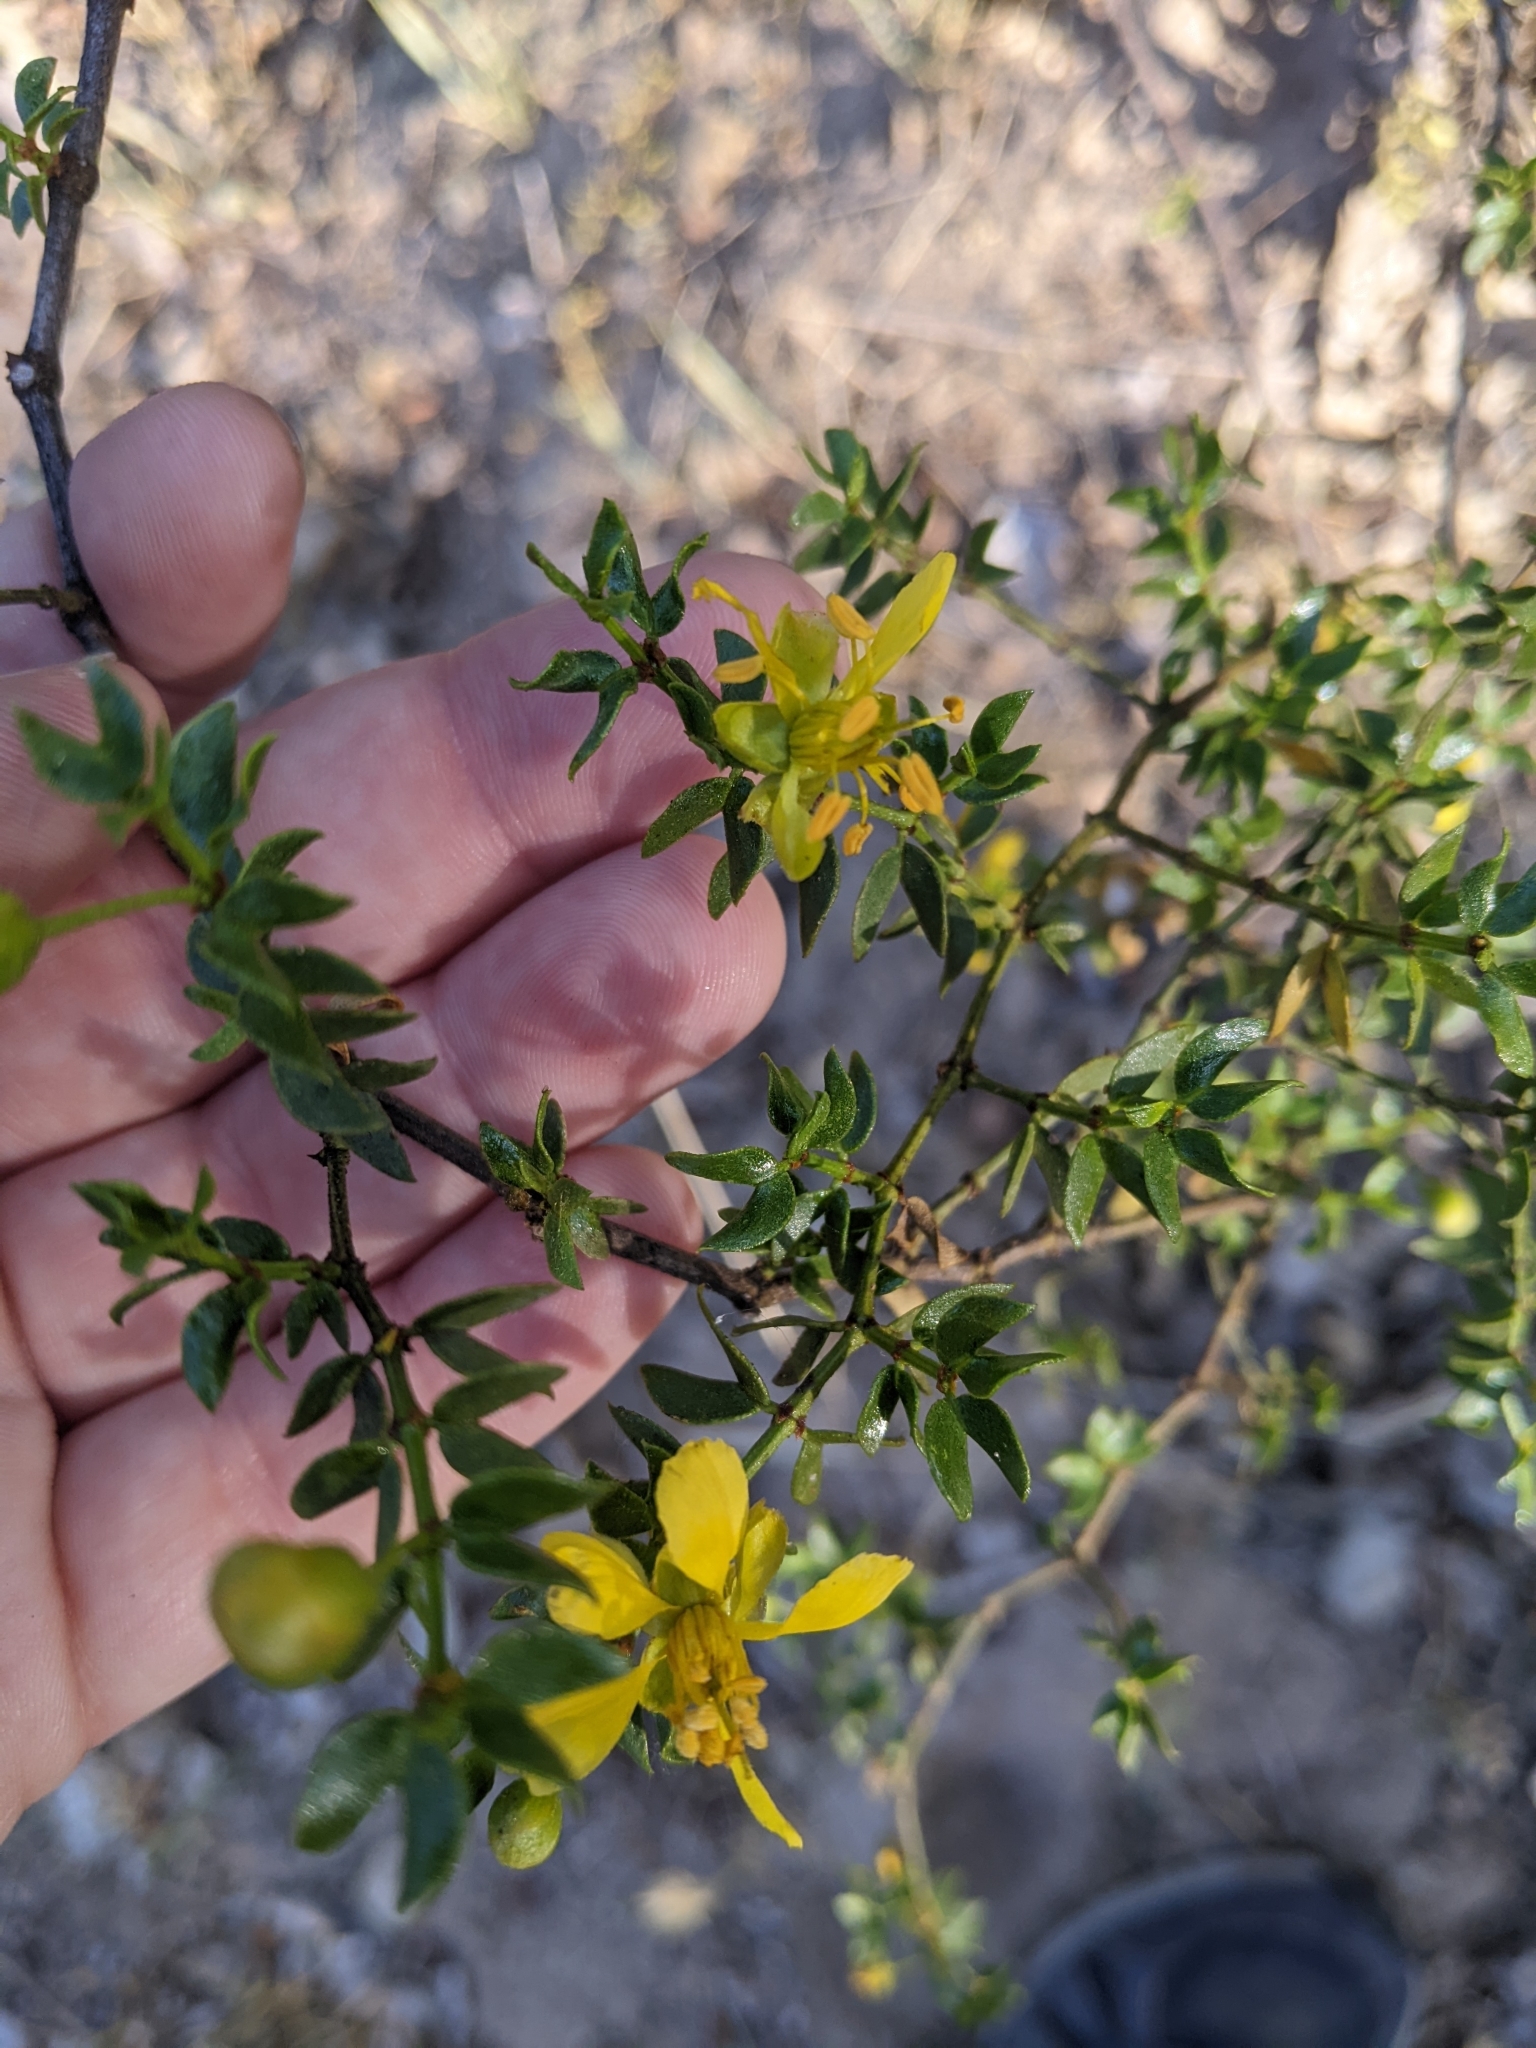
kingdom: Plantae
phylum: Tracheophyta
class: Magnoliopsida
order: Zygophyllales
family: Zygophyllaceae
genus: Larrea
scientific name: Larrea tridentata
